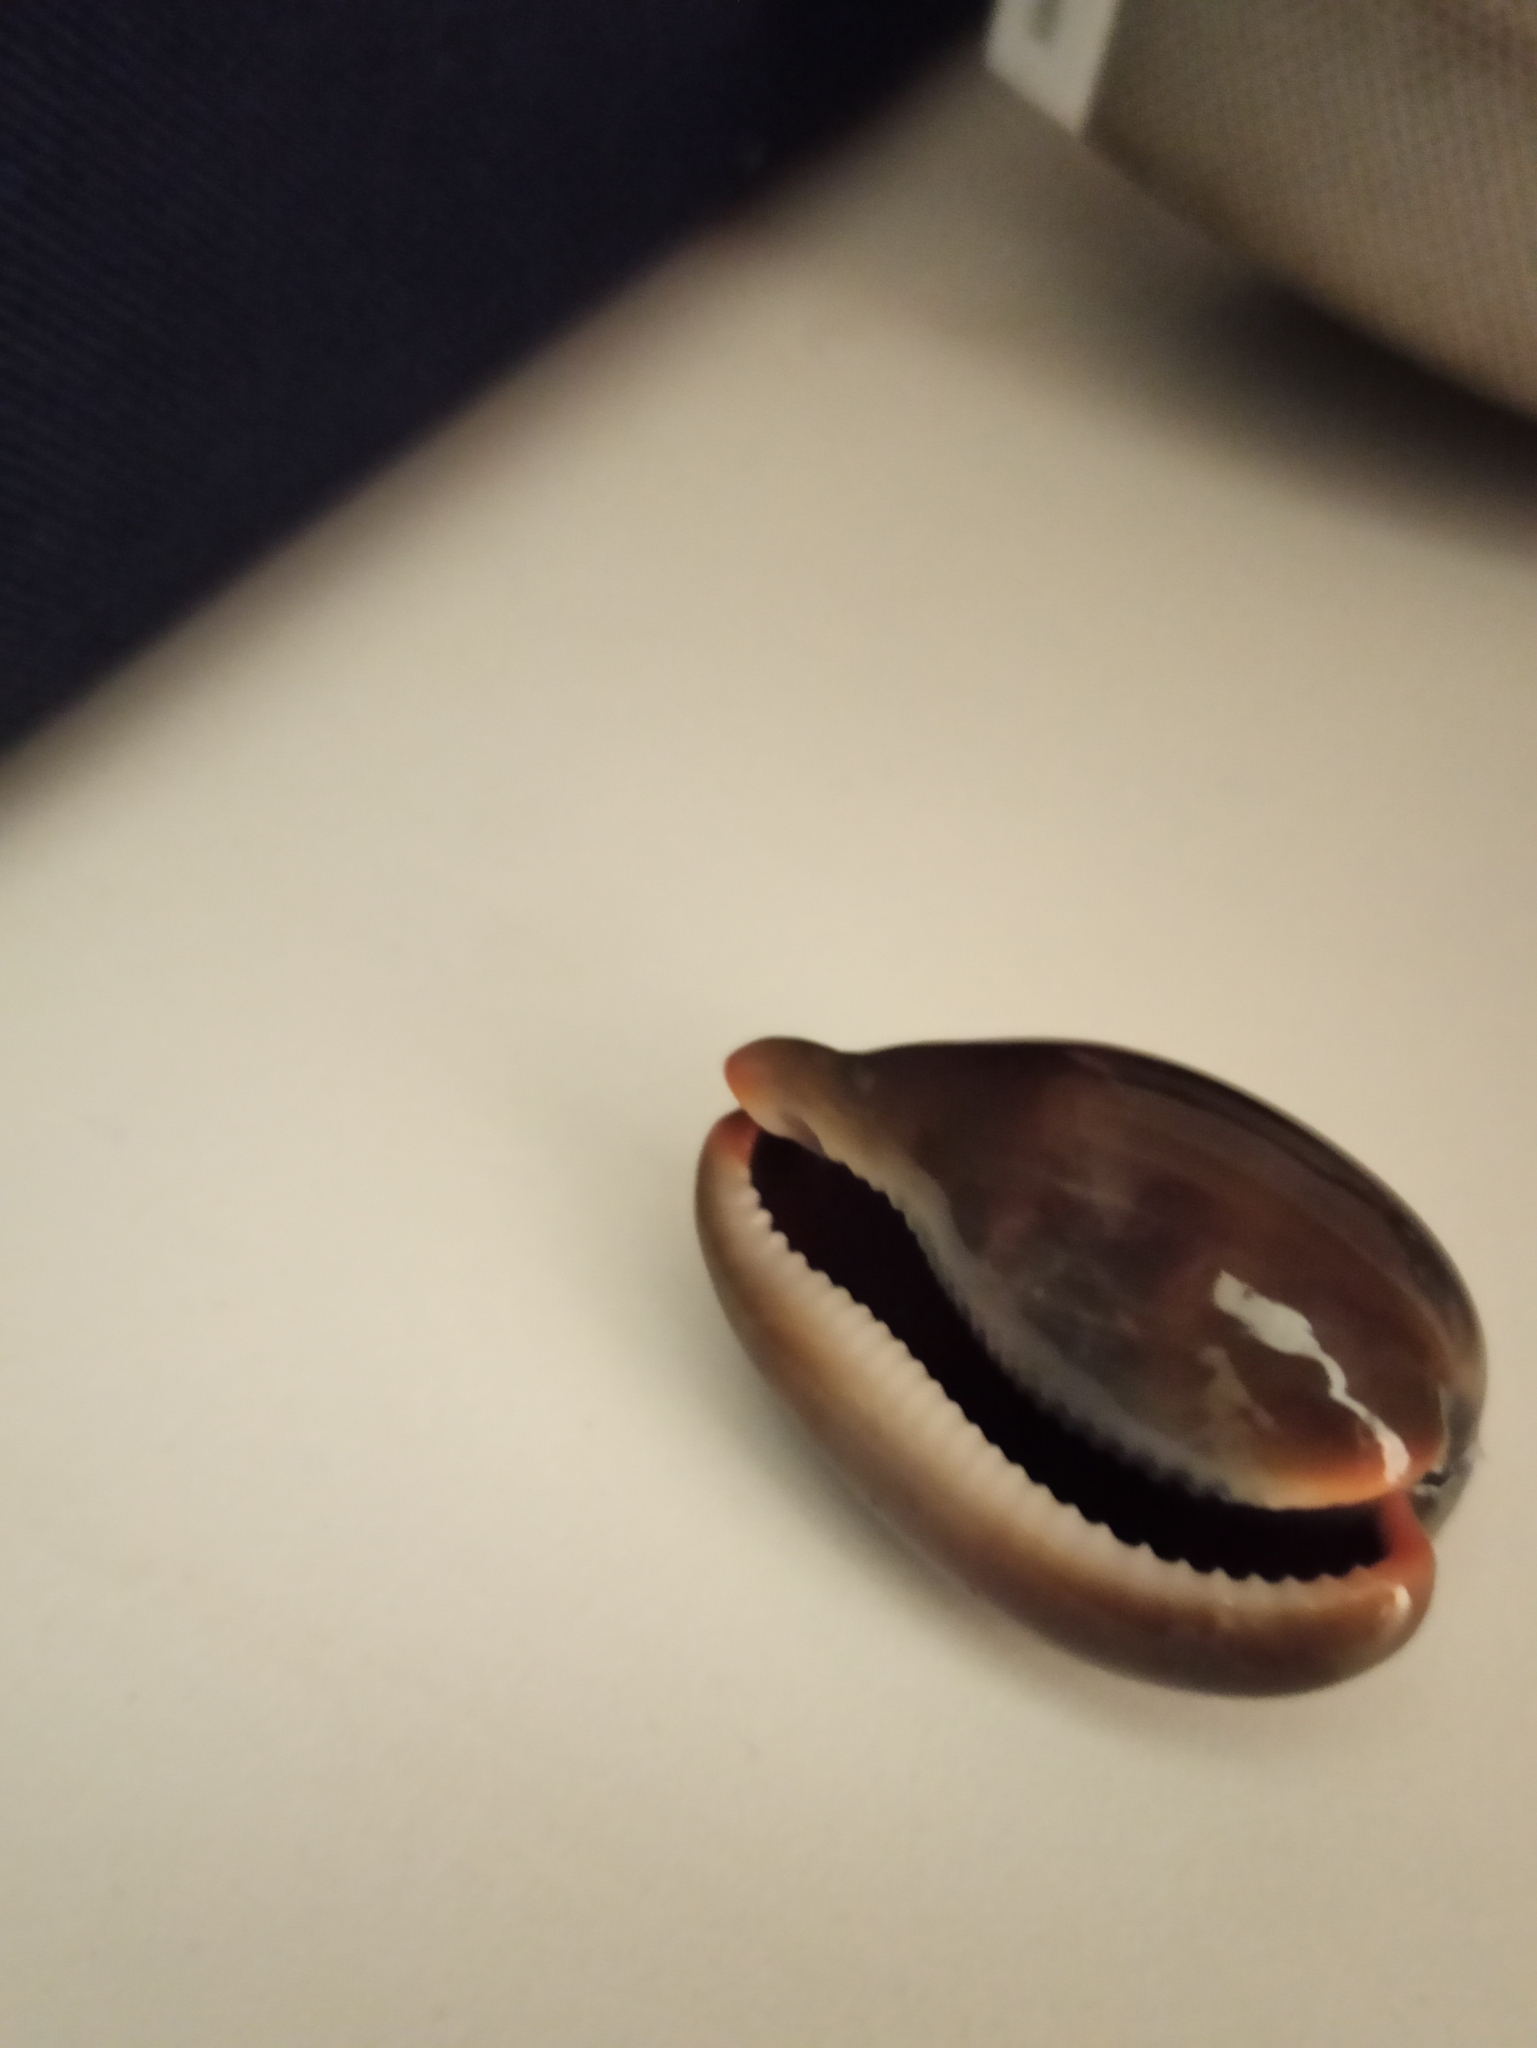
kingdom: Animalia
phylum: Mollusca
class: Gastropoda
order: Littorinimorpha
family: Cypraeidae
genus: Luria
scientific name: Luria lurida
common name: Brown cowry
